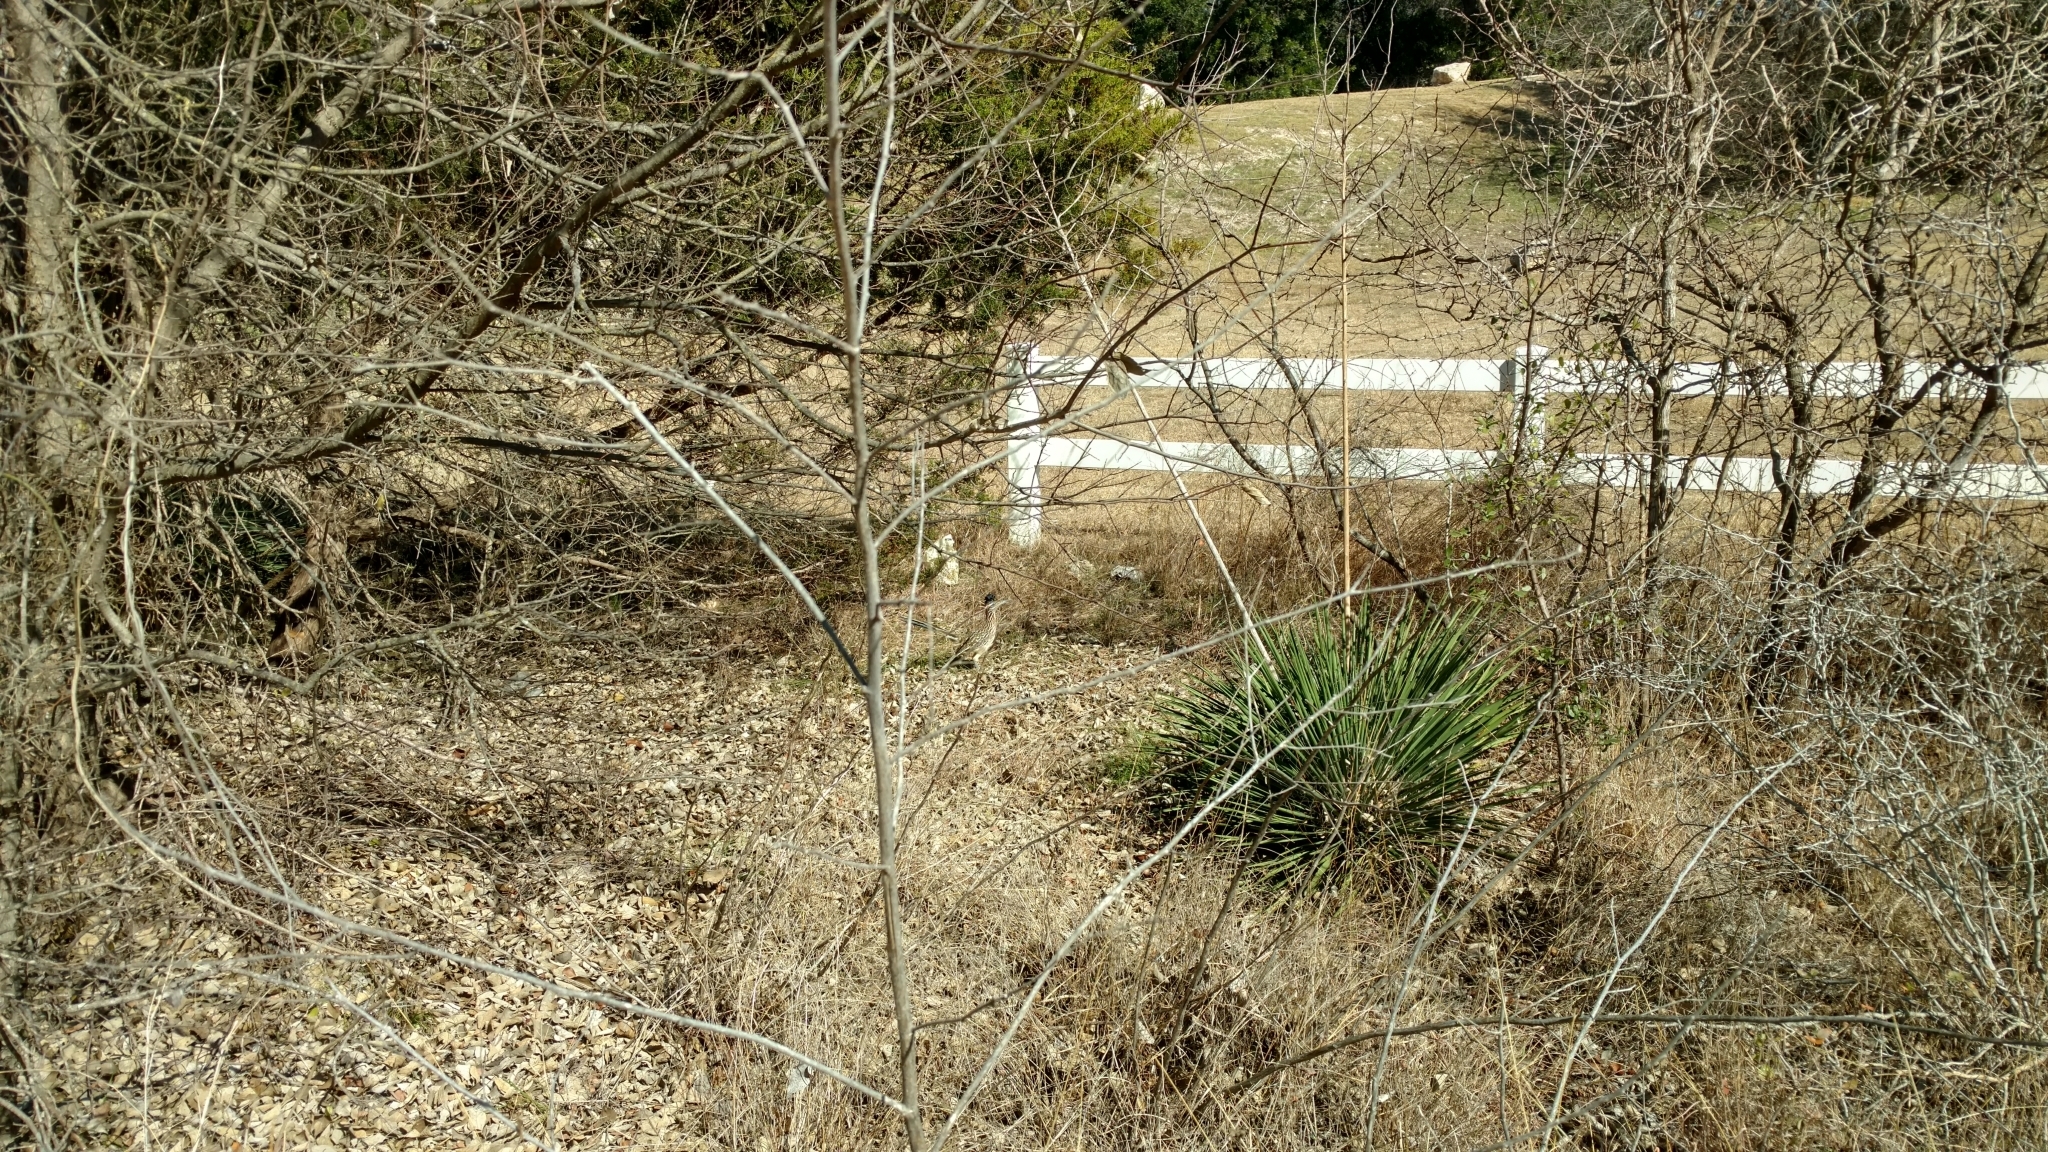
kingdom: Animalia
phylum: Chordata
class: Aves
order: Cuculiformes
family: Cuculidae
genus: Geococcyx
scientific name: Geococcyx californianus
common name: Greater roadrunner
